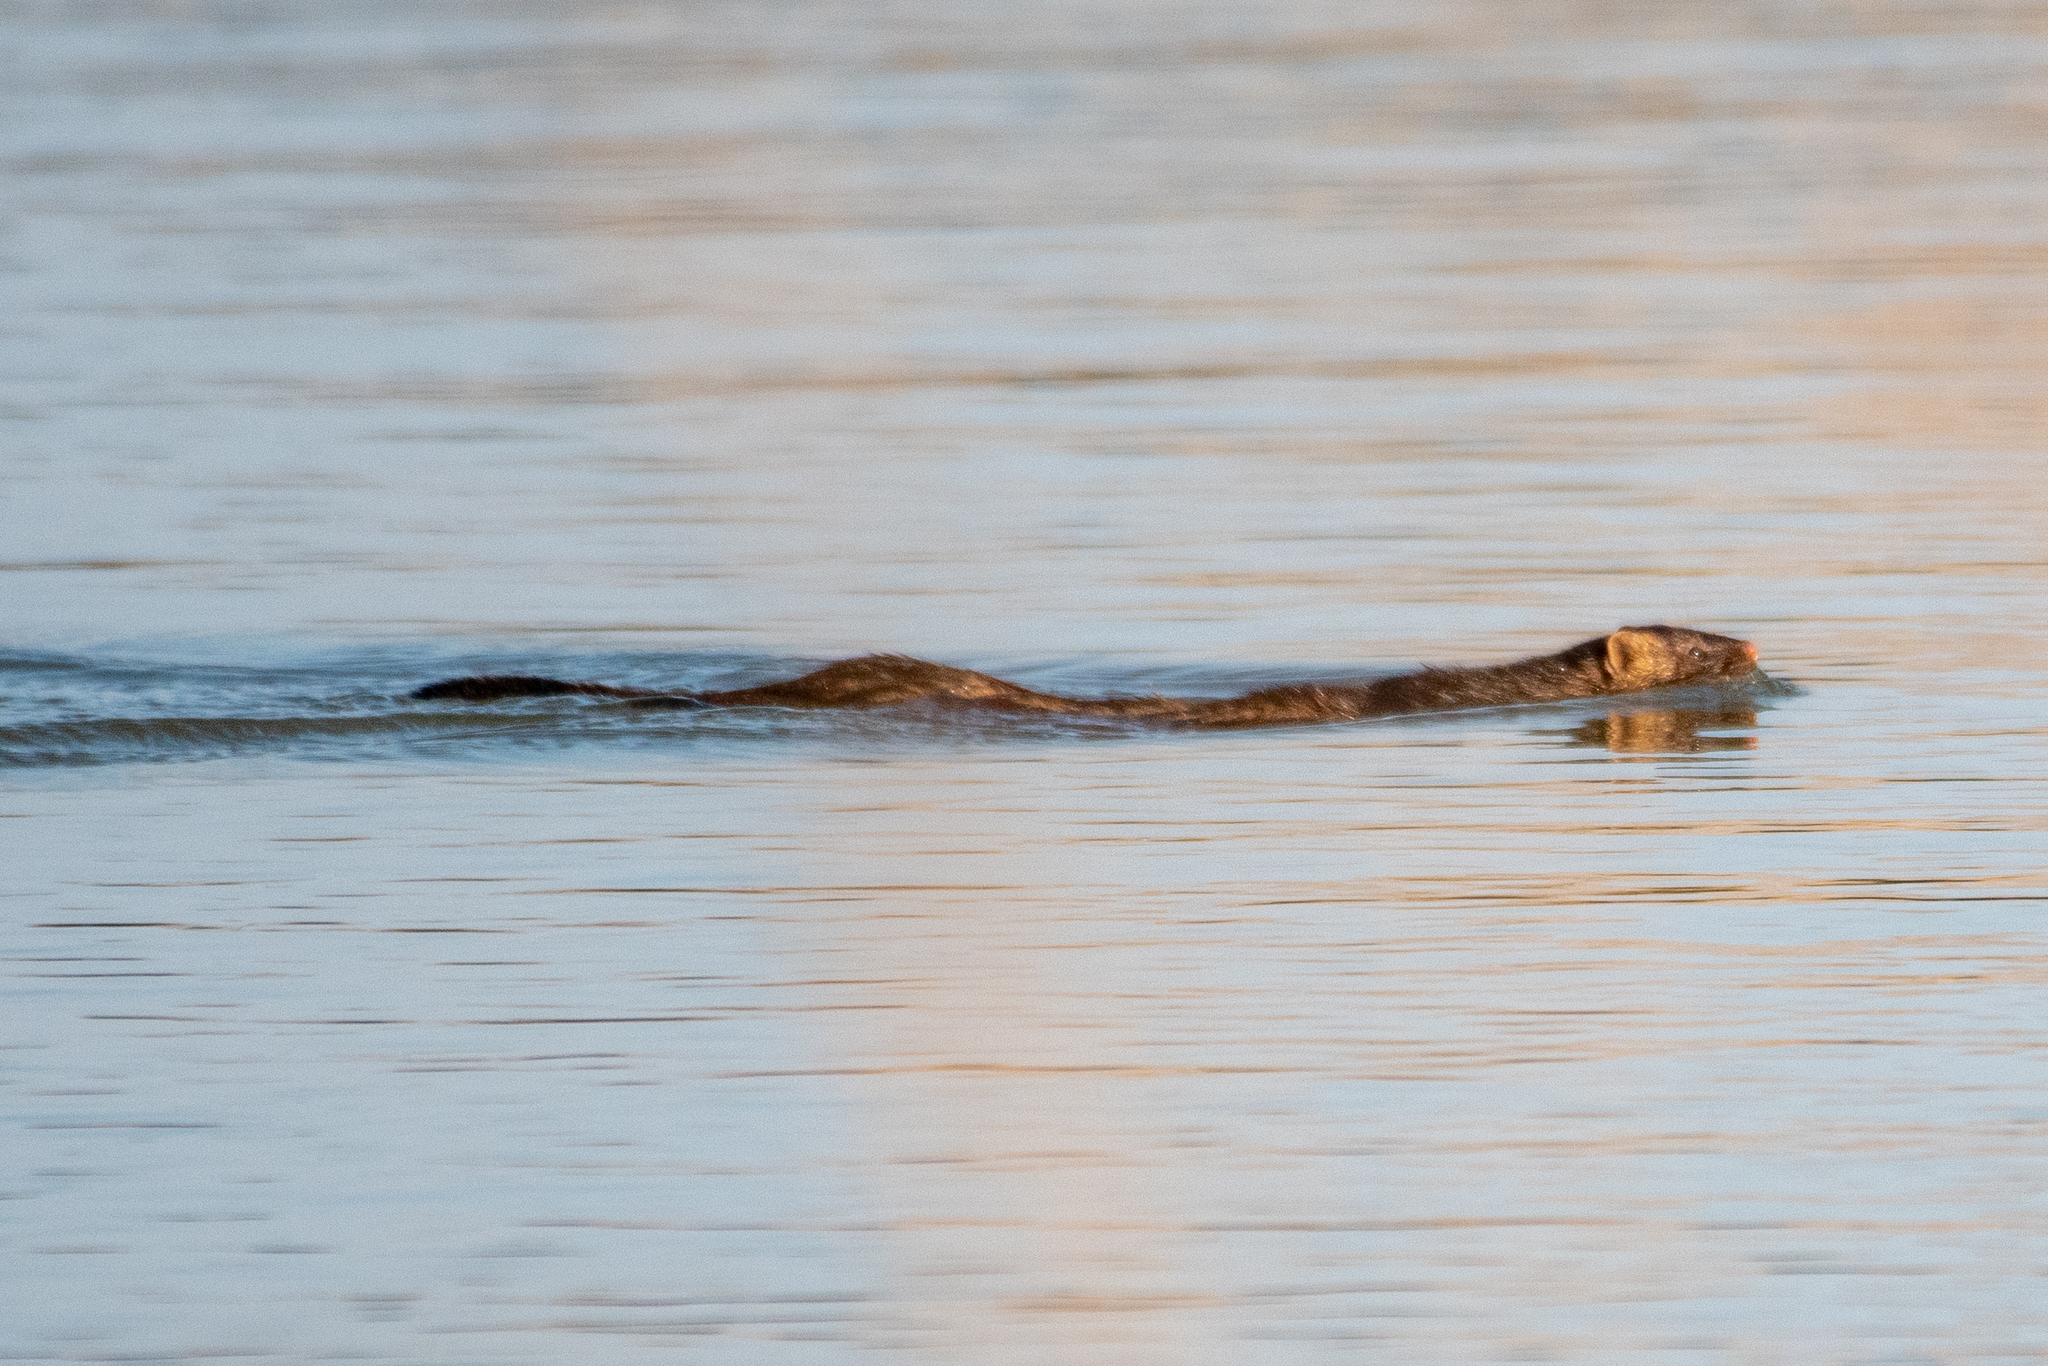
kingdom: Animalia
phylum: Chordata
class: Mammalia
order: Carnivora
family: Mustelidae
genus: Mustela
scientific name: Mustela
